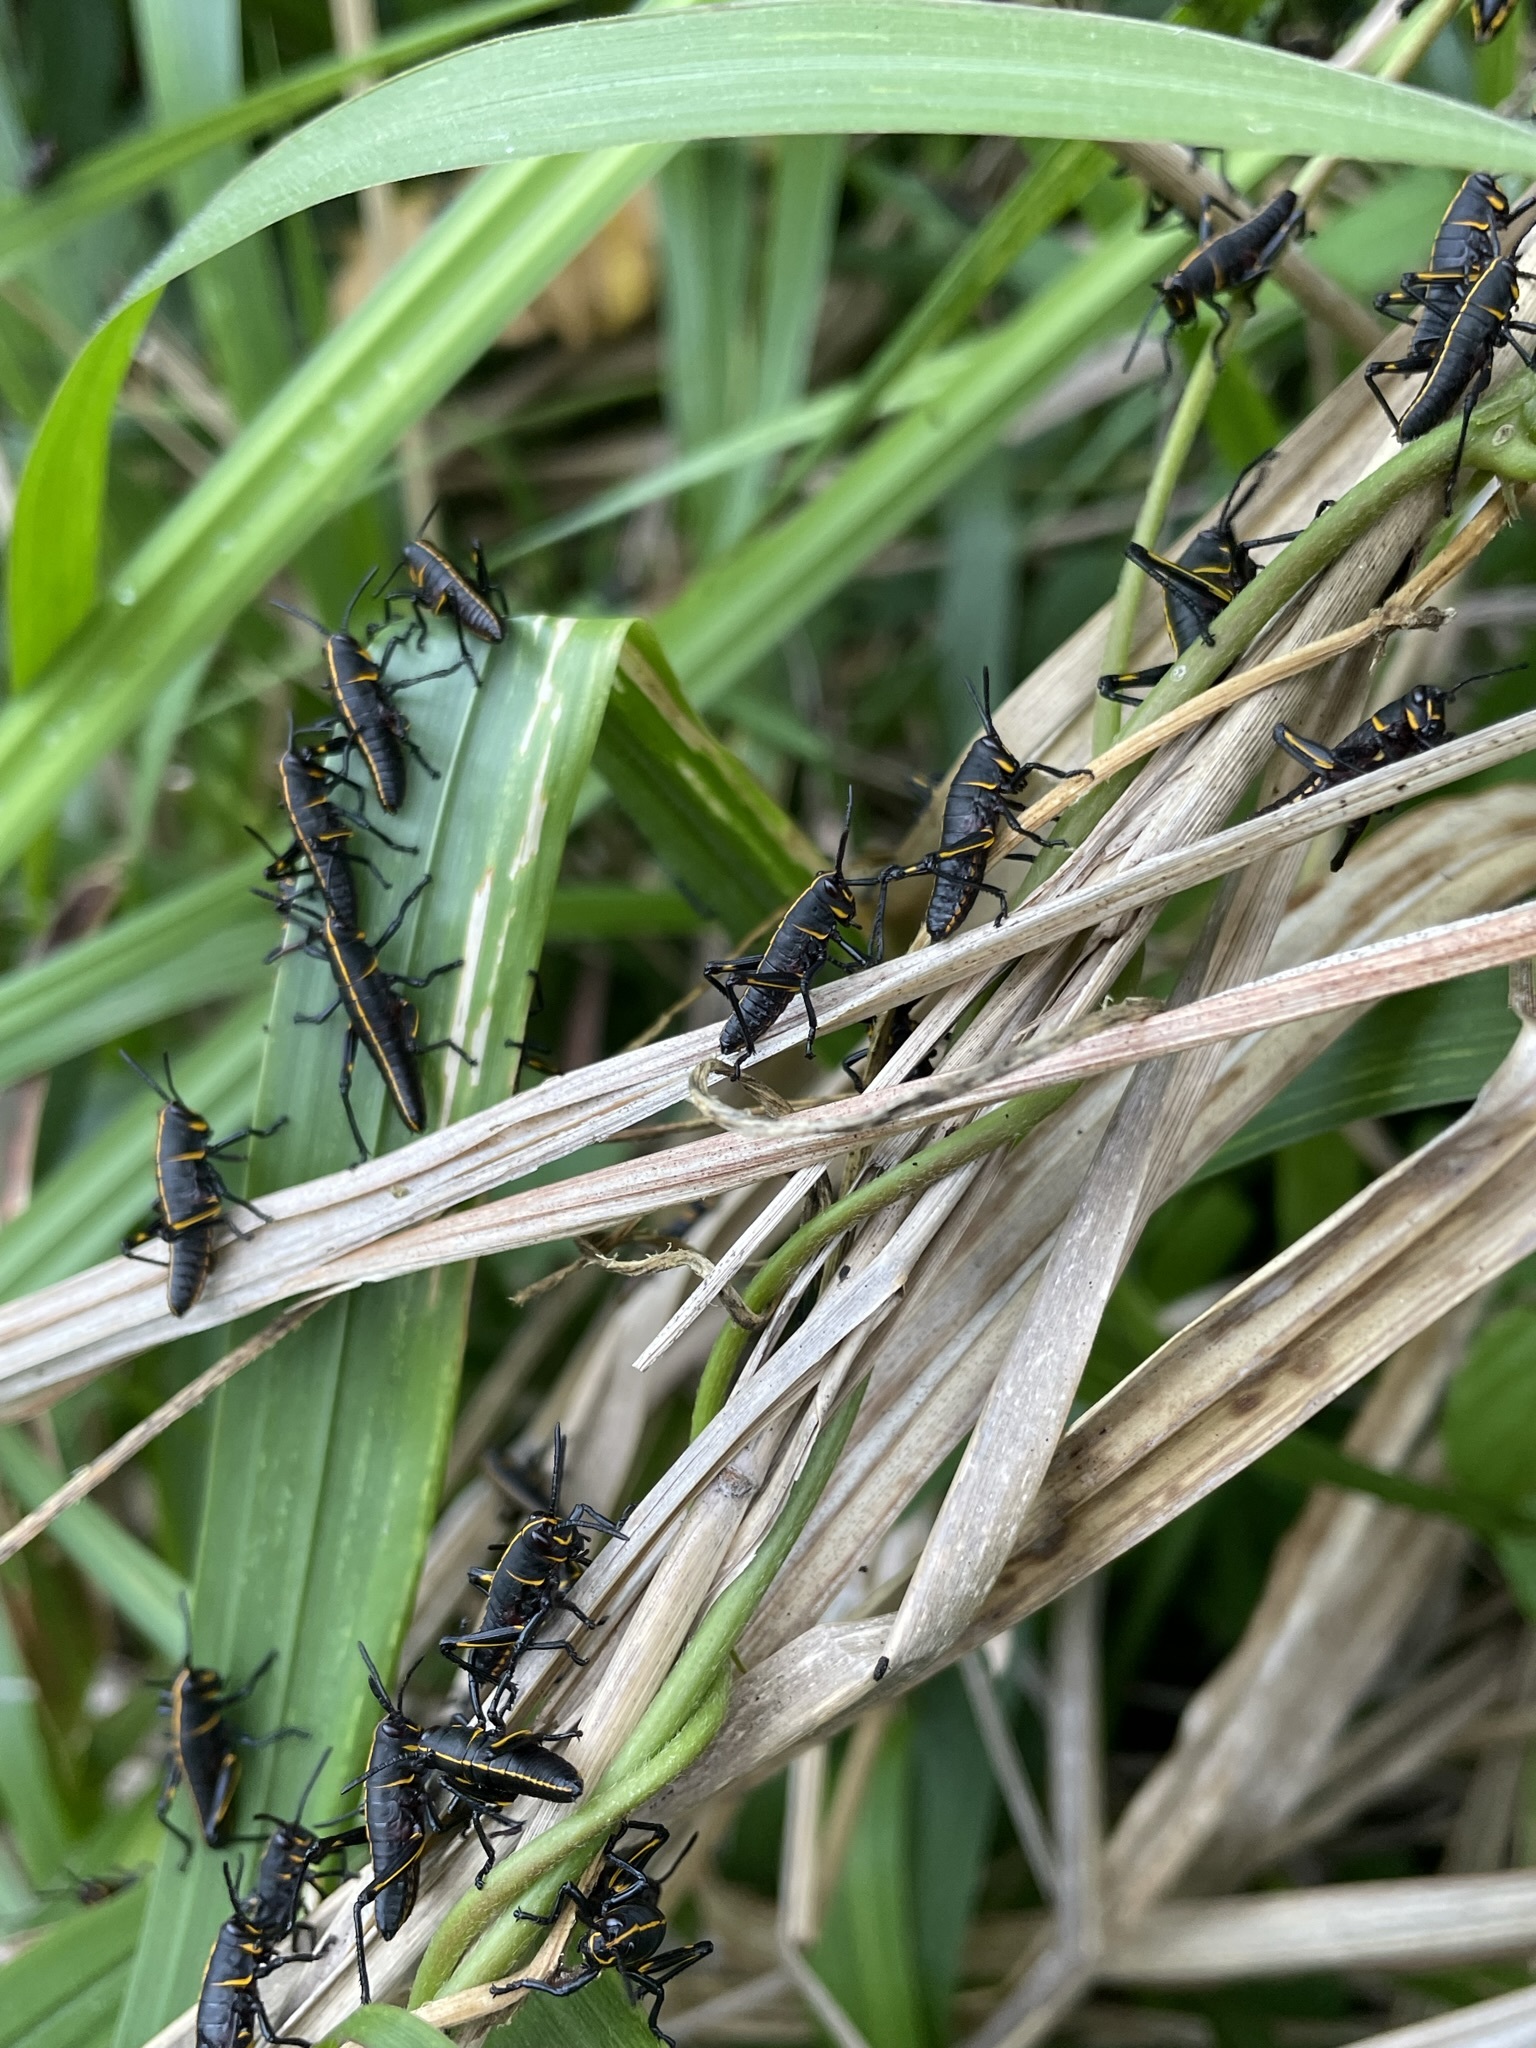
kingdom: Animalia
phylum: Arthropoda
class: Insecta
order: Orthoptera
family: Romaleidae
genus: Romalea
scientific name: Romalea microptera
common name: Eastern lubber grasshopper
